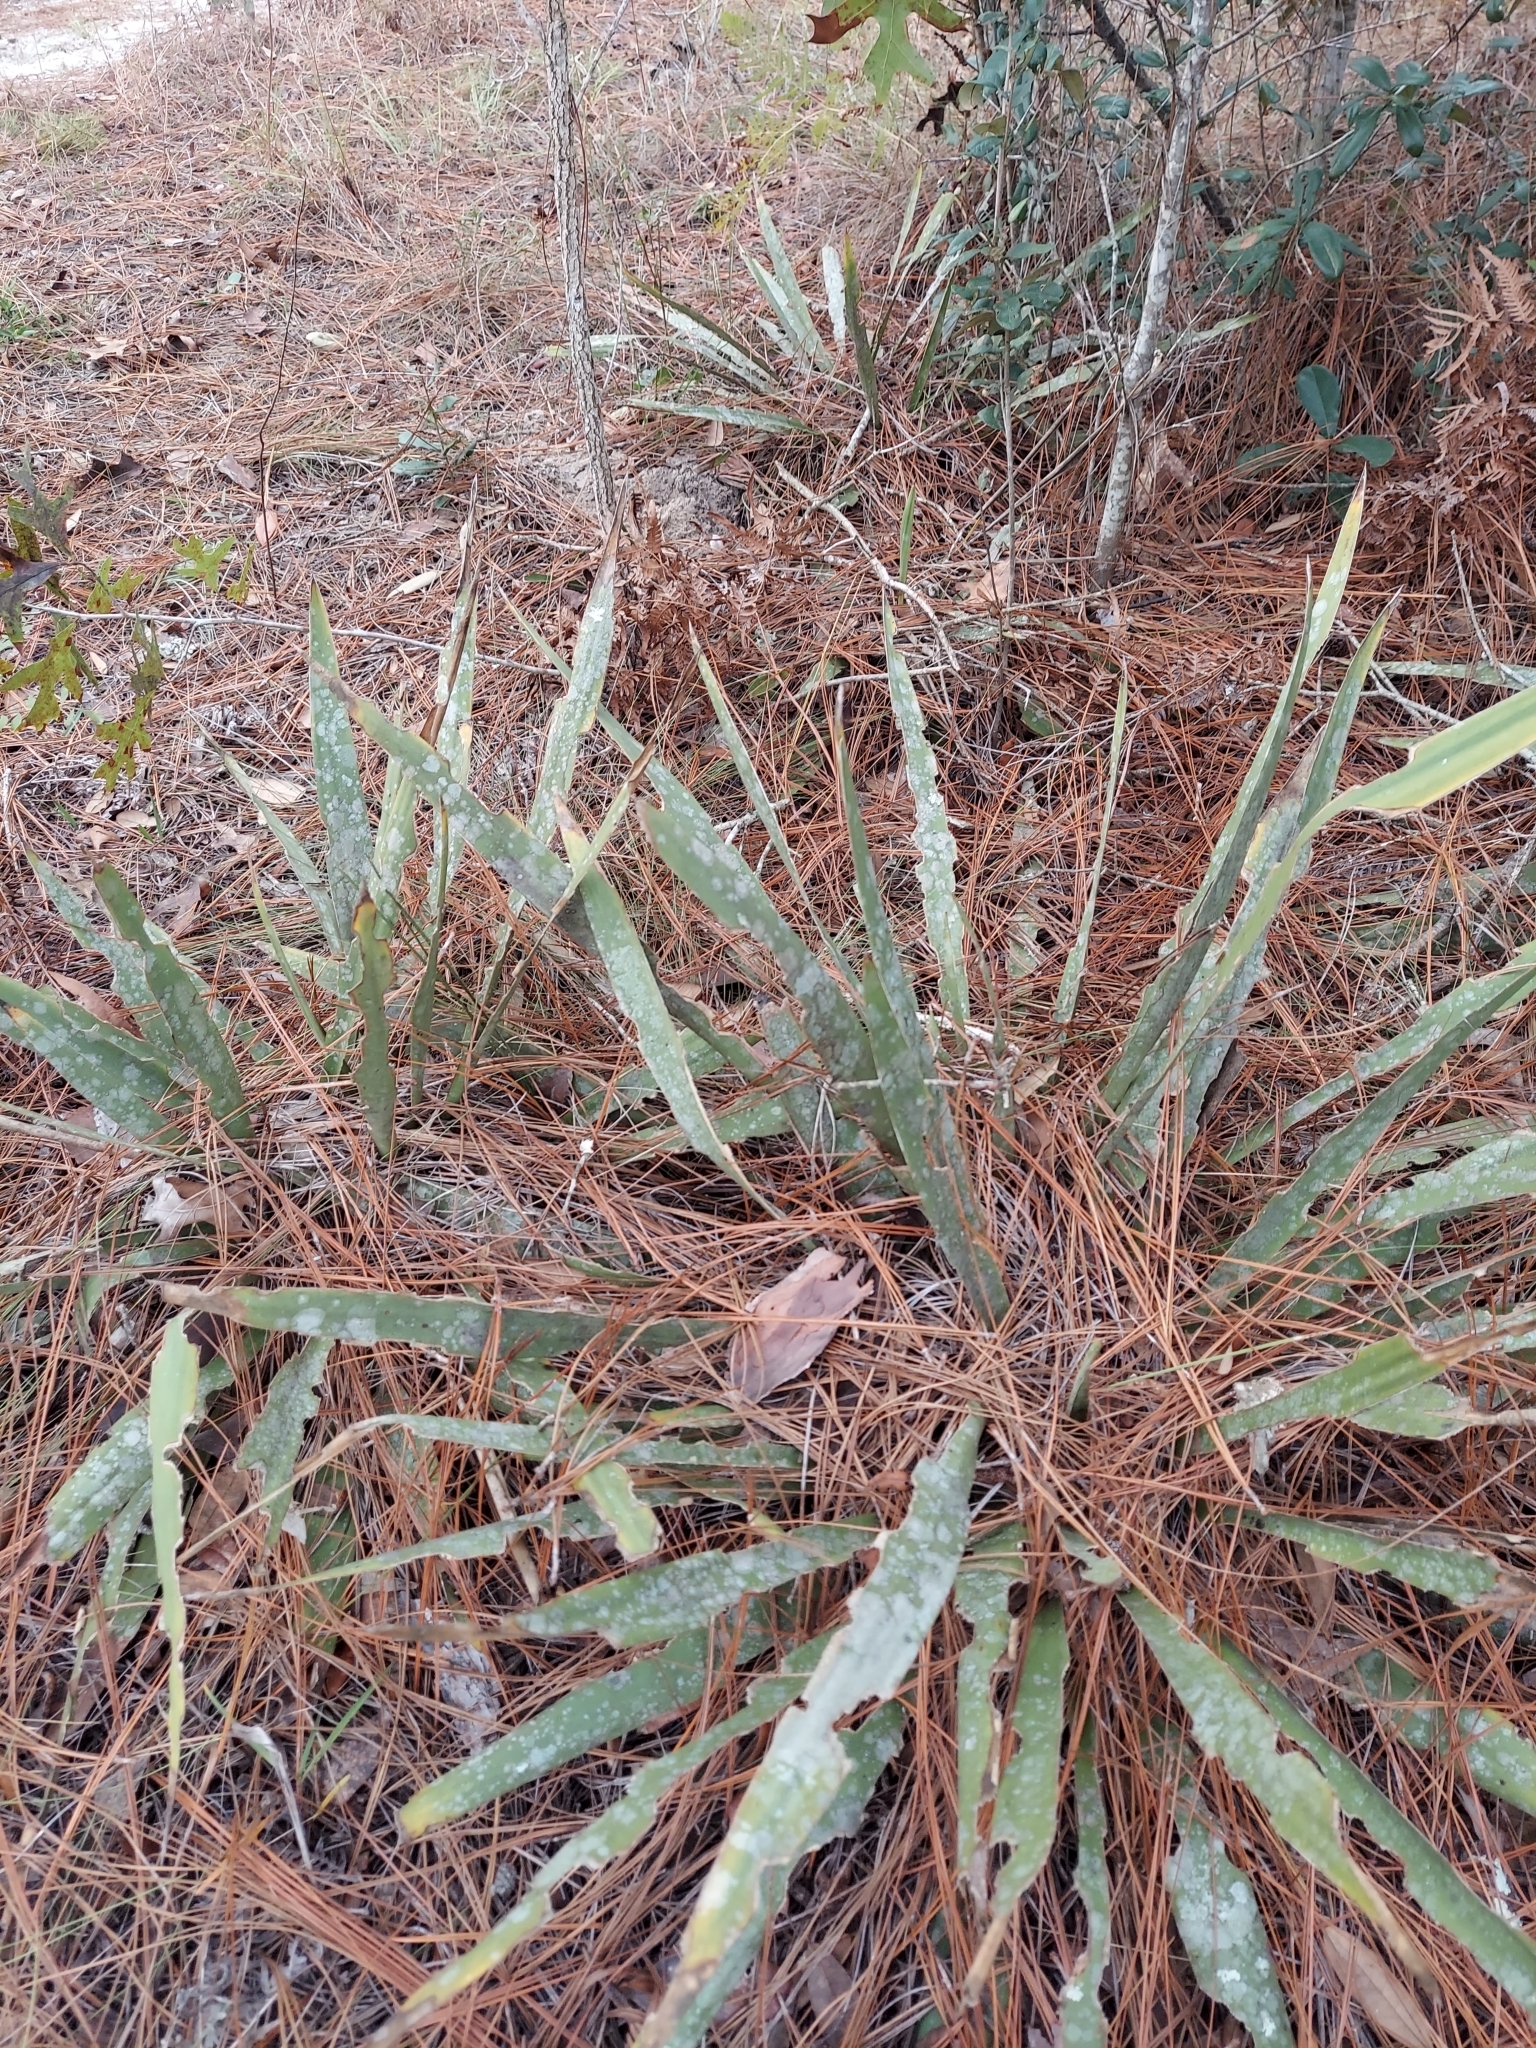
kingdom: Plantae
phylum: Tracheophyta
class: Liliopsida
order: Asparagales
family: Asparagaceae
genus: Yucca
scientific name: Yucca filamentosa
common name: Adam's-needle
